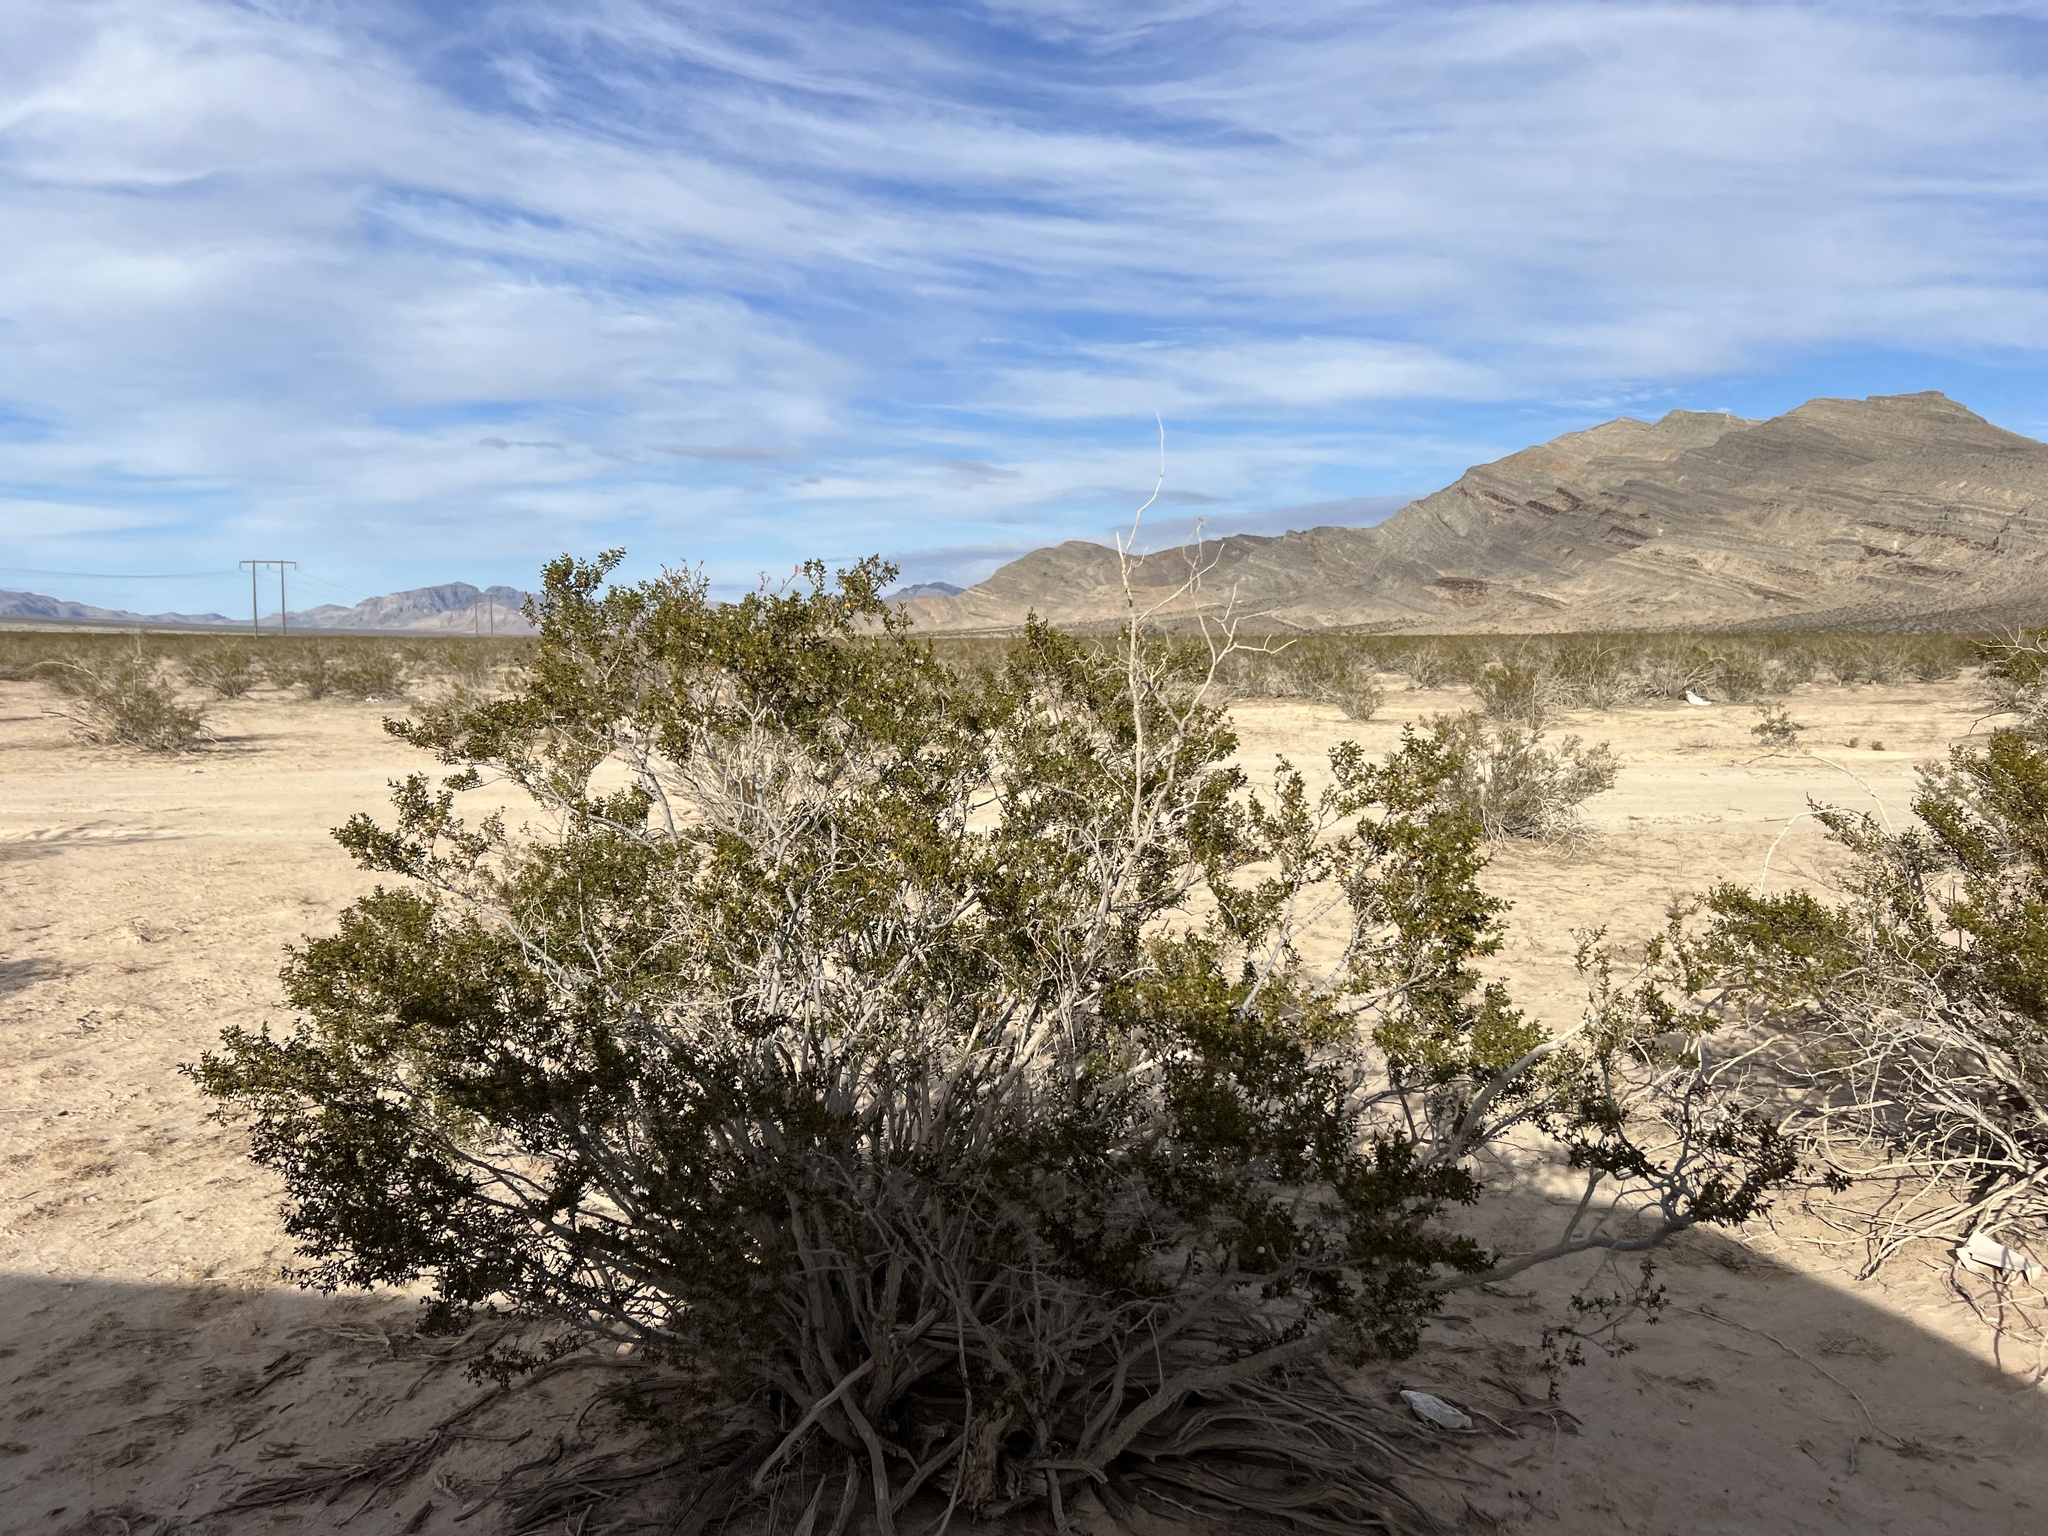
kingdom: Plantae
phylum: Tracheophyta
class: Magnoliopsida
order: Zygophyllales
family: Zygophyllaceae
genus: Larrea
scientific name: Larrea tridentata
